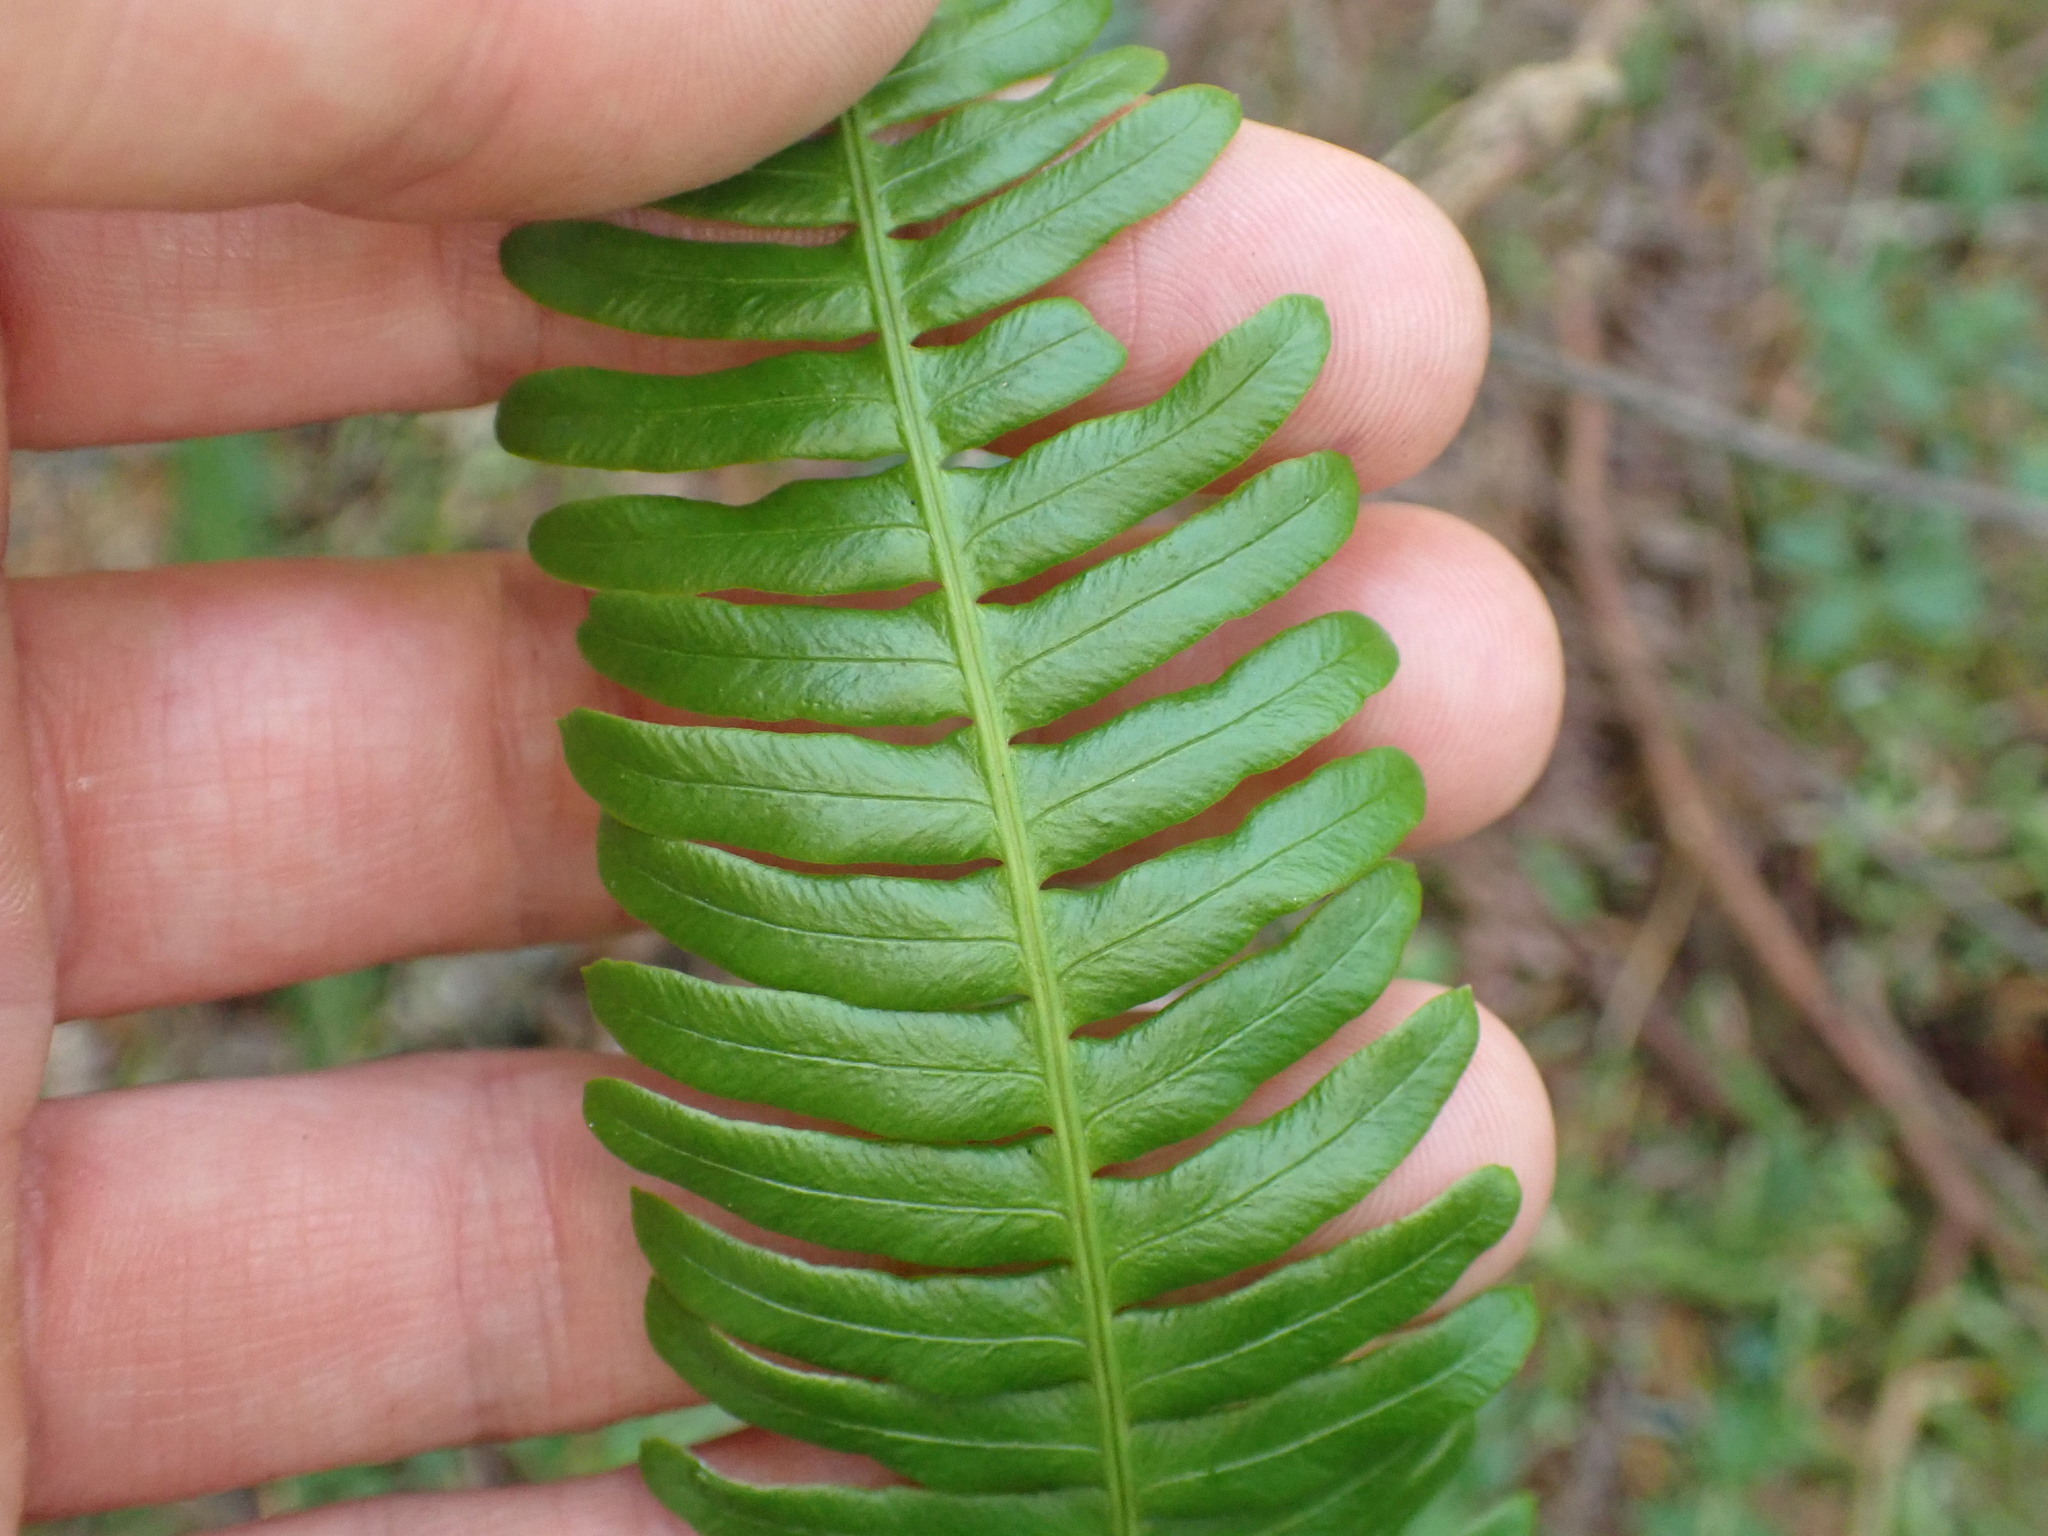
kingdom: Plantae
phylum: Tracheophyta
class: Polypodiopsida
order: Polypodiales
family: Blechnaceae
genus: Struthiopteris
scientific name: Struthiopteris spicant
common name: Deer fern
